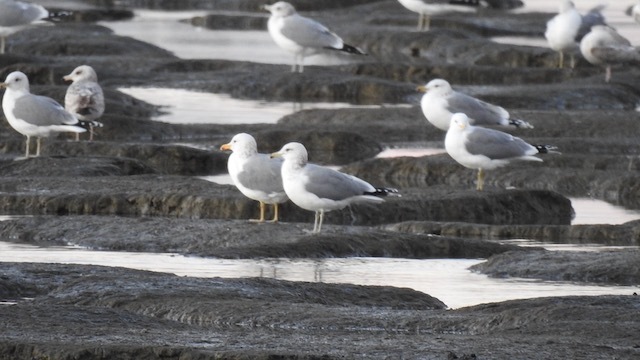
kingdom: Animalia
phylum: Chordata
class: Aves
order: Charadriiformes
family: Laridae
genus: Larus
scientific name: Larus californicus
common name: California gull
